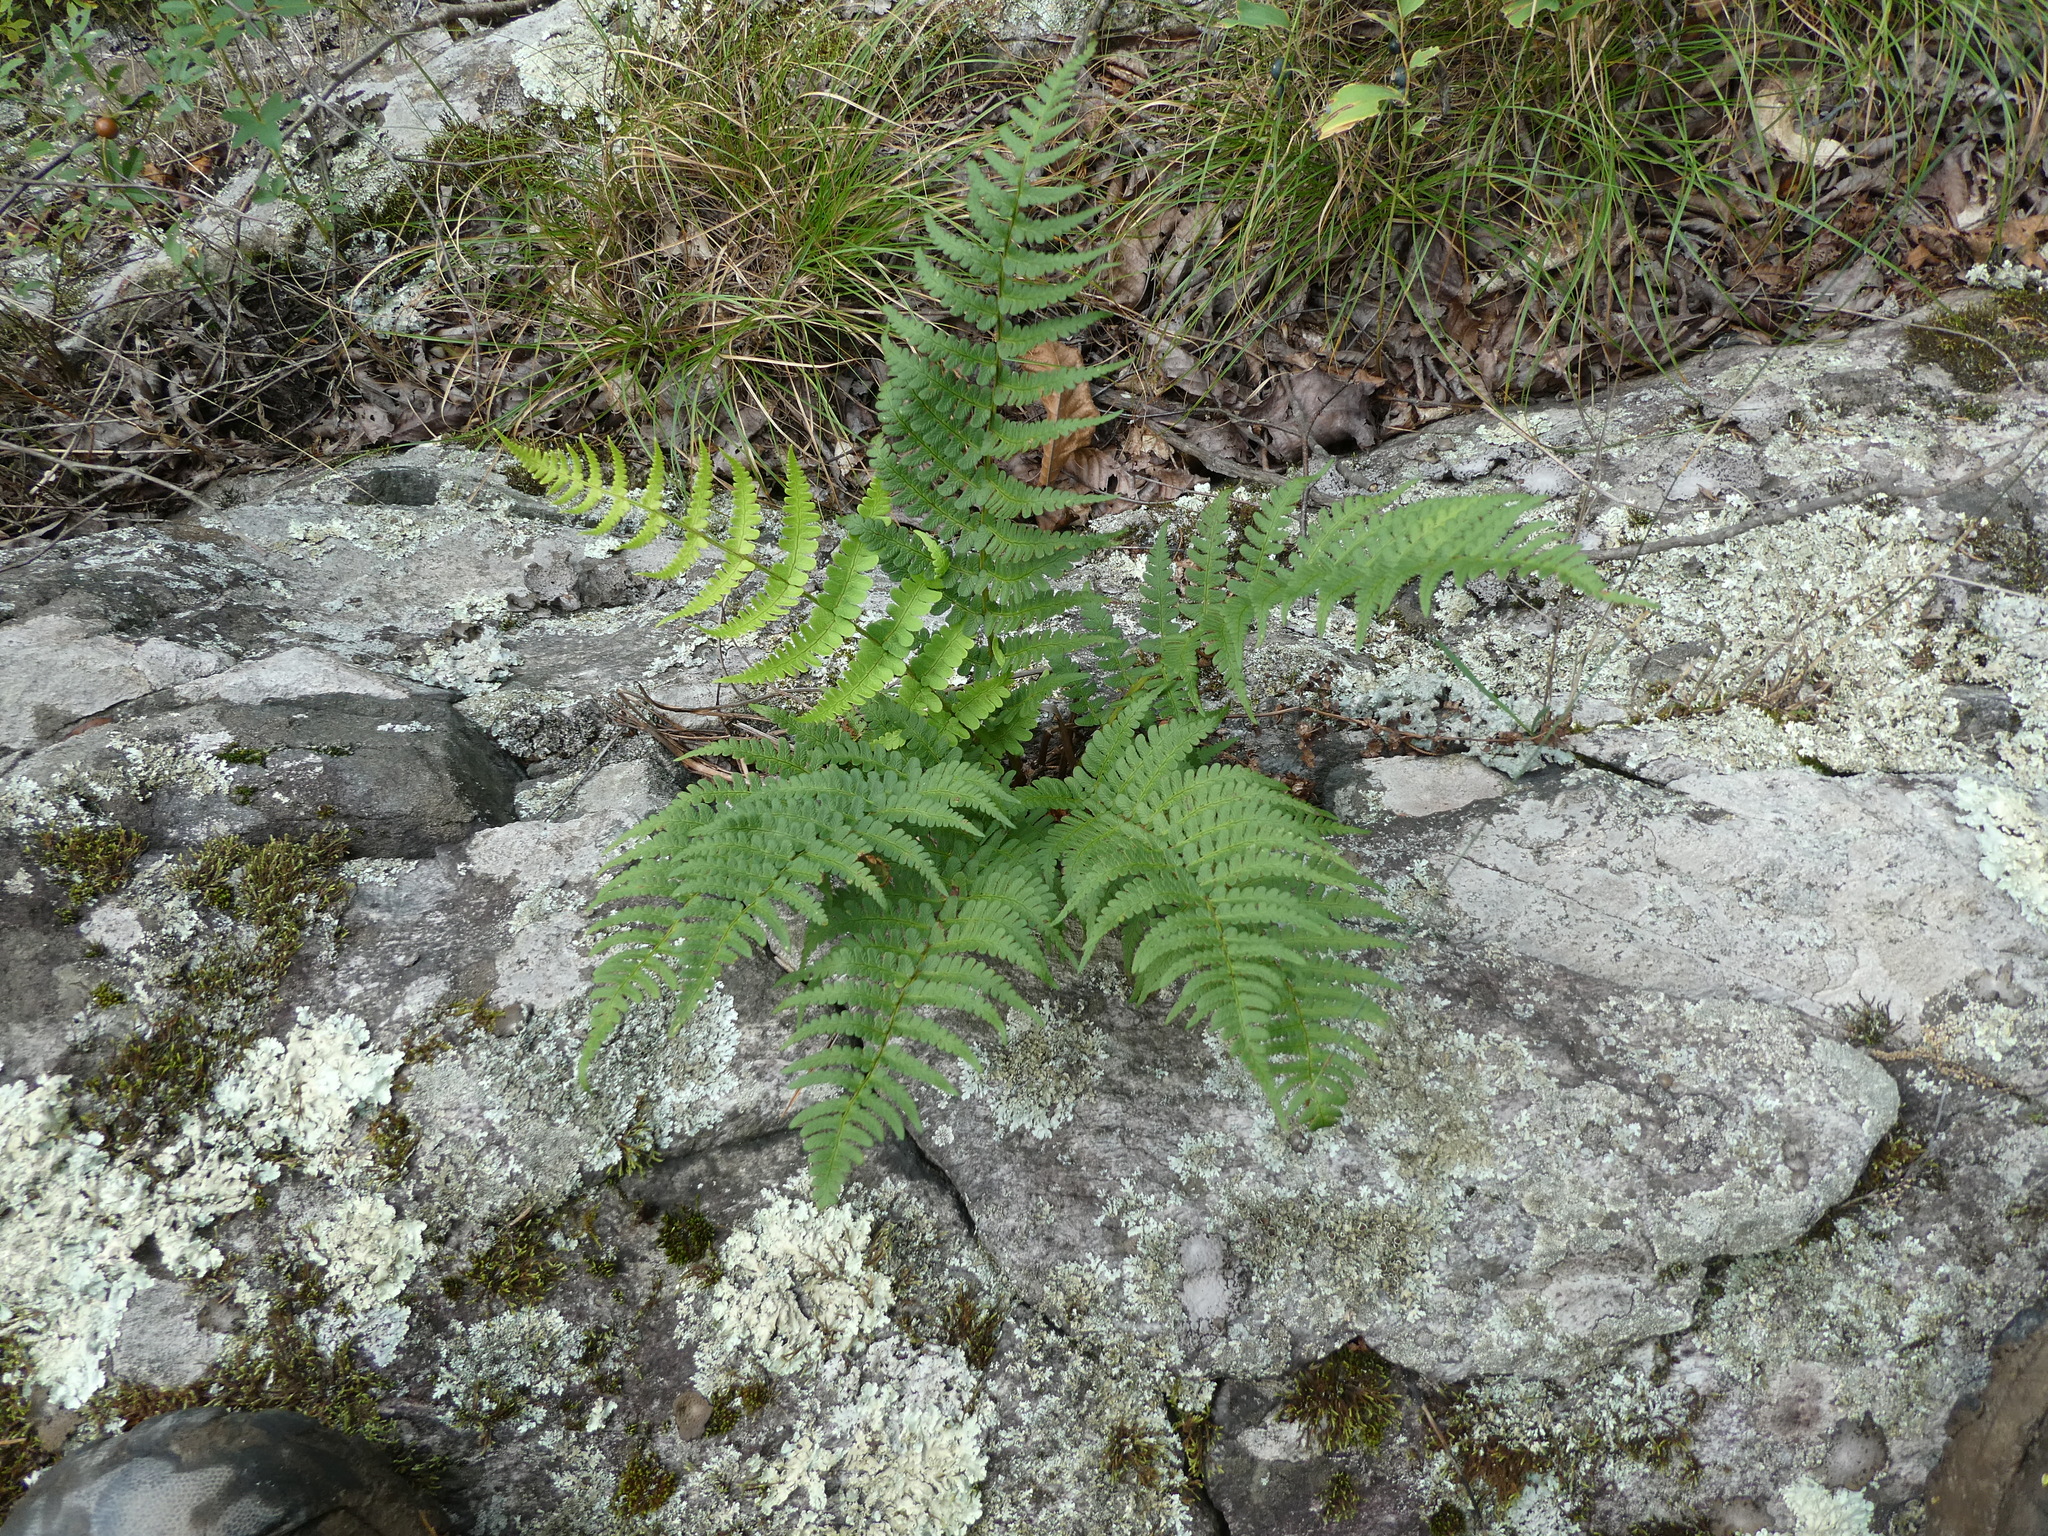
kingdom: Plantae
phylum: Tracheophyta
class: Polypodiopsida
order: Polypodiales
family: Dryopteridaceae
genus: Dryopteris
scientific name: Dryopteris marginalis
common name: Marginal wood fern
